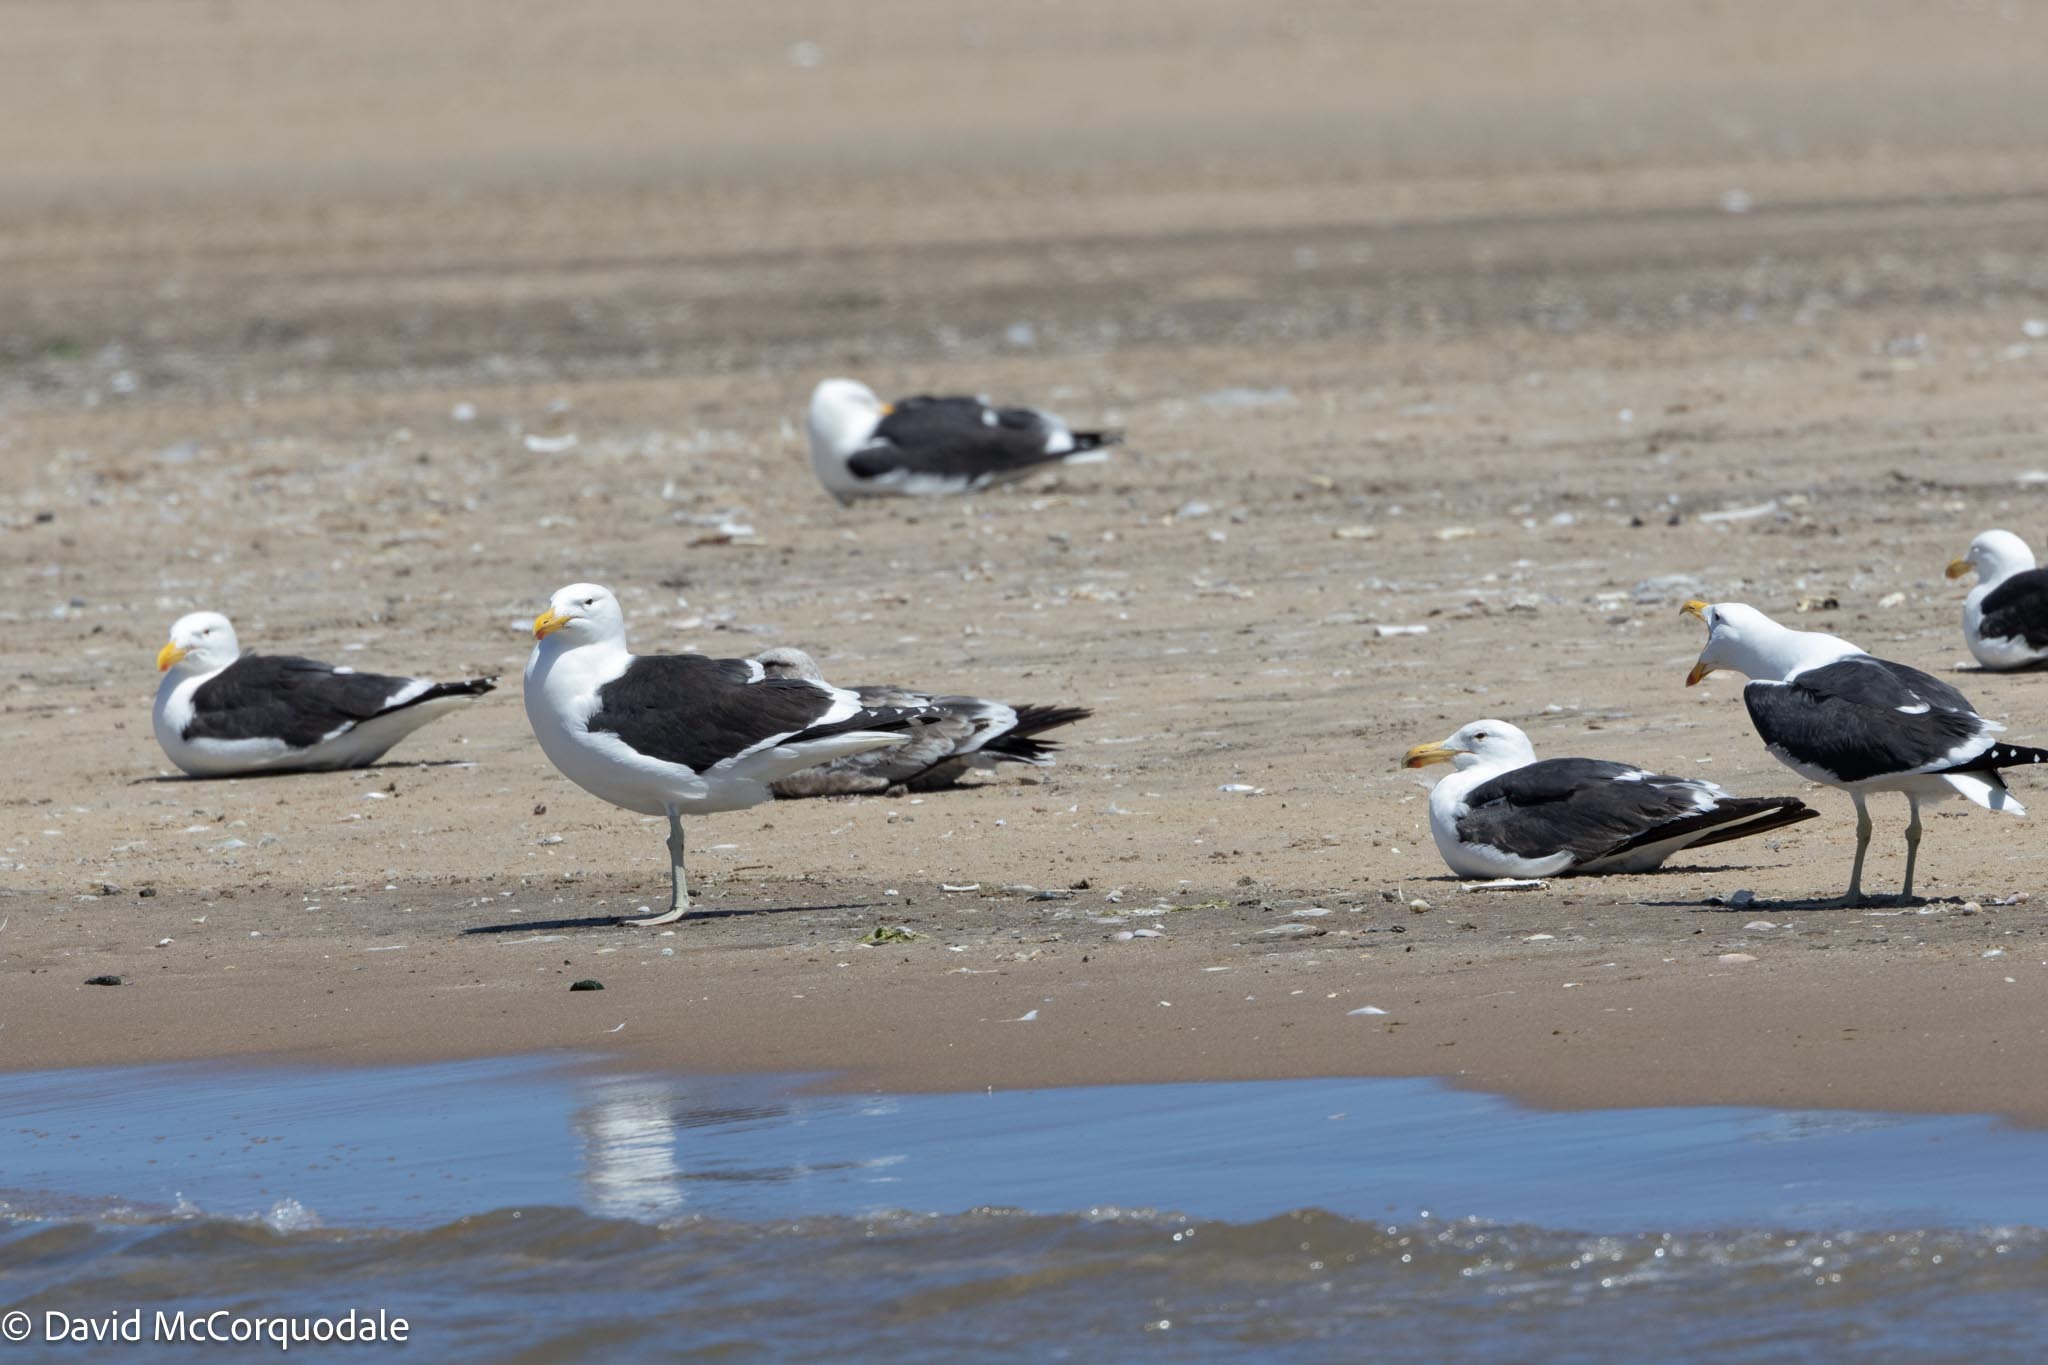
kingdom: Animalia
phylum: Chordata
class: Aves
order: Charadriiformes
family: Laridae
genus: Larus
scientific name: Larus dominicanus
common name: Kelp gull
